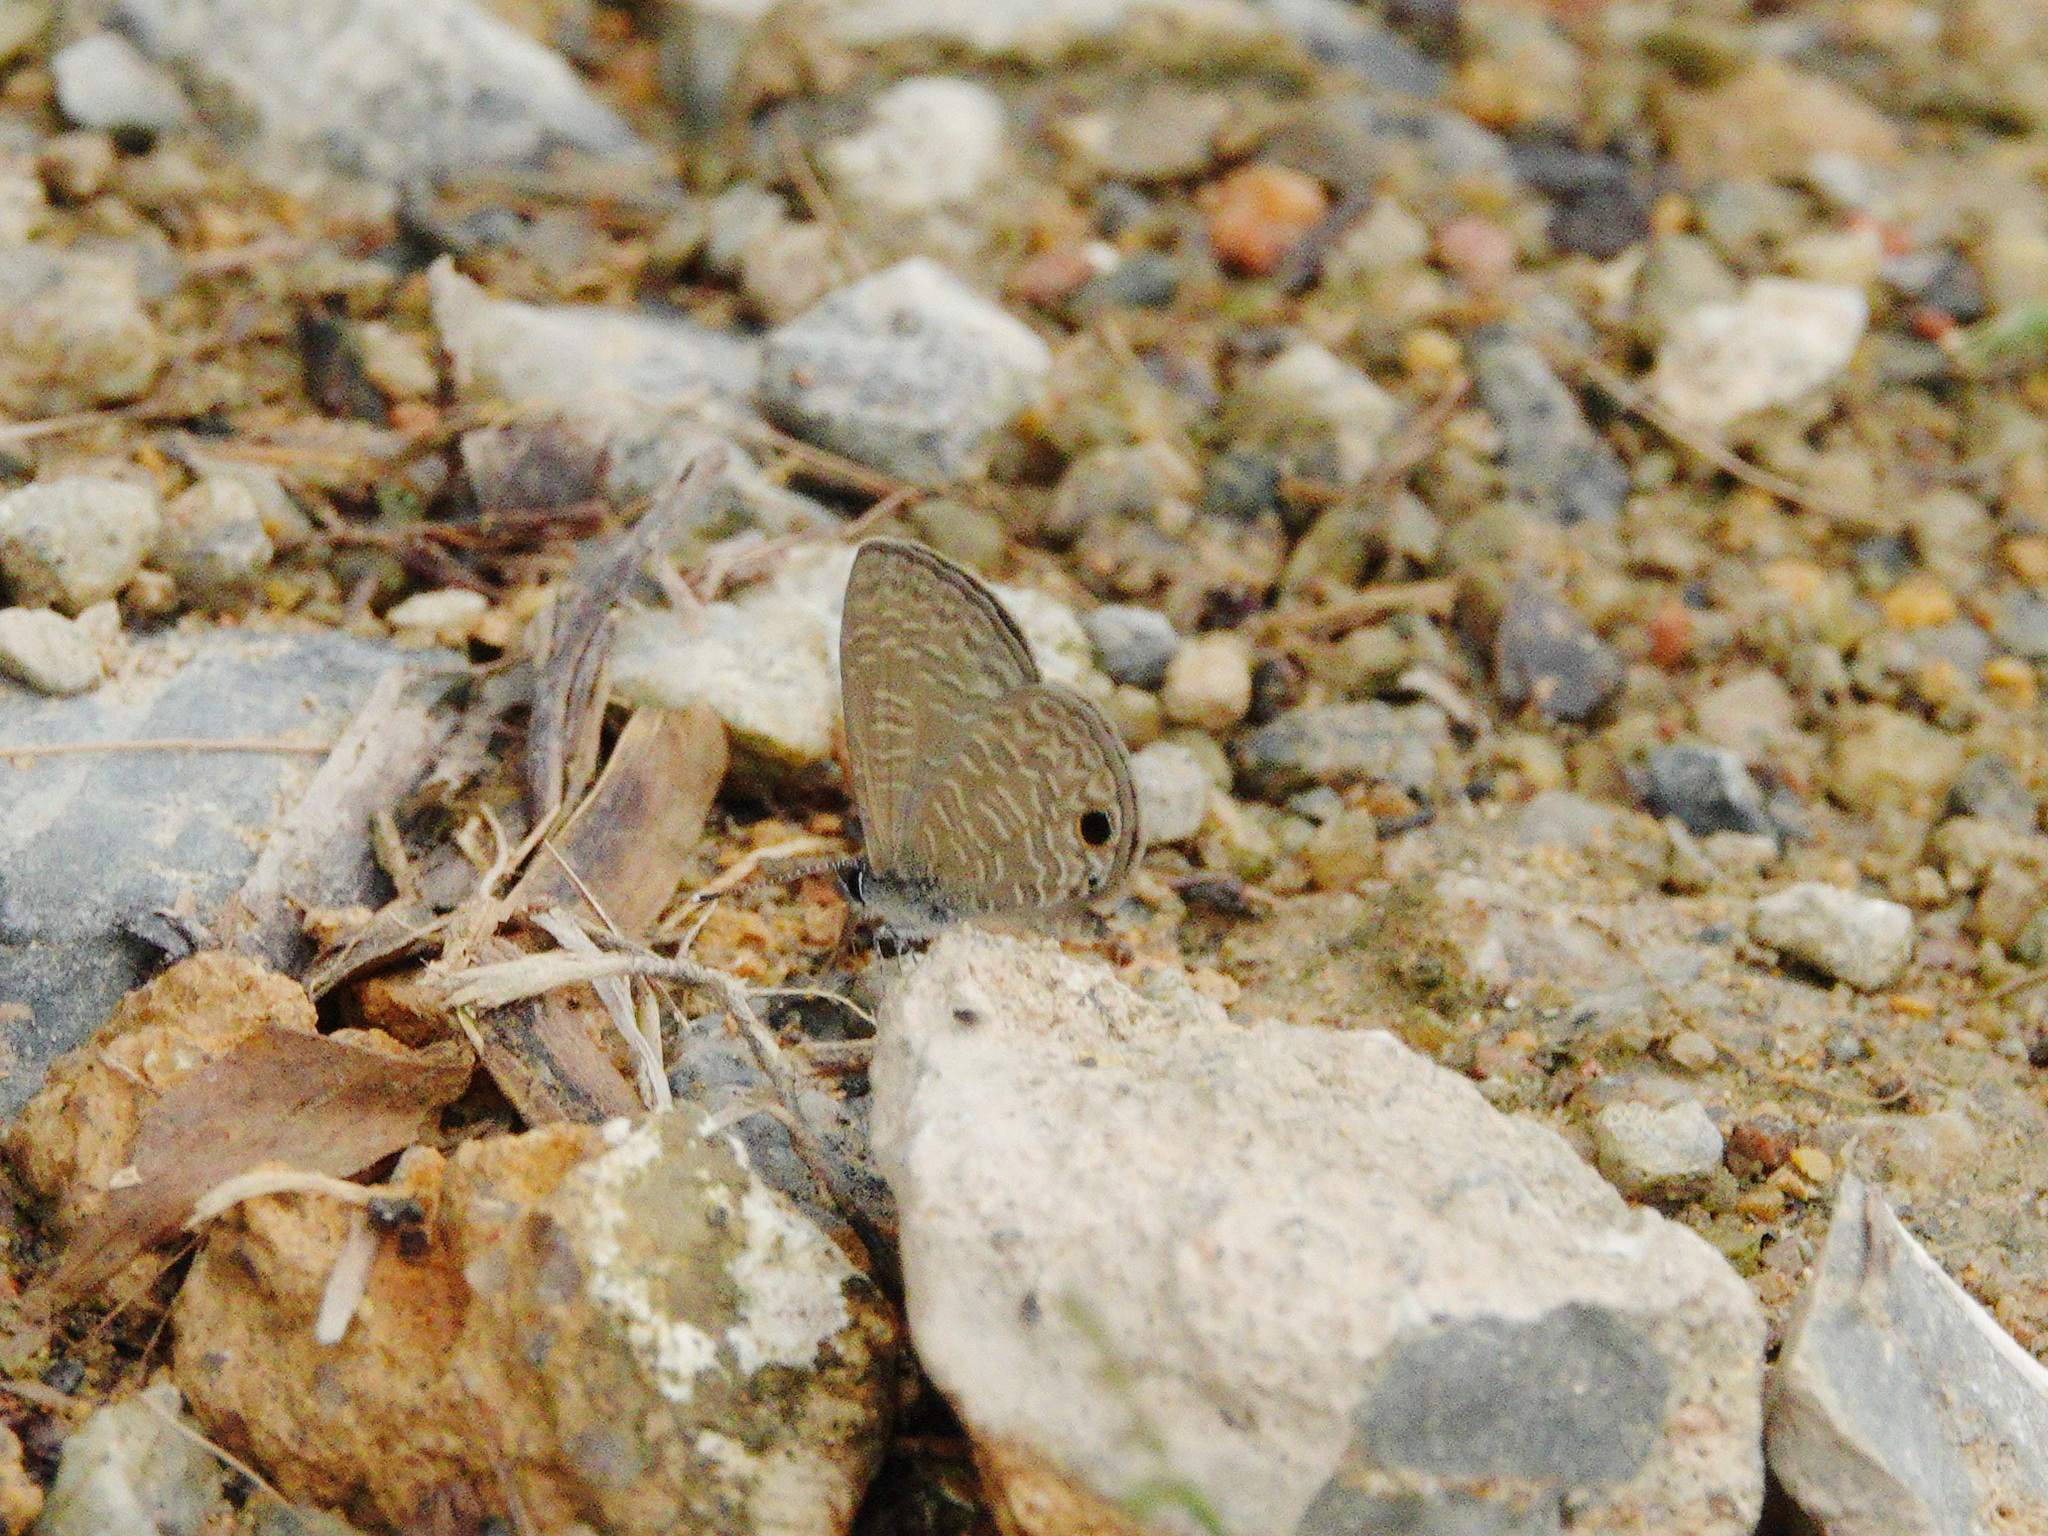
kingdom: Animalia
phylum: Arthropoda
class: Insecta
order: Lepidoptera
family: Lycaenidae
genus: Prosotas
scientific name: Prosotas dubiosa
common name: Tailless lineblue
